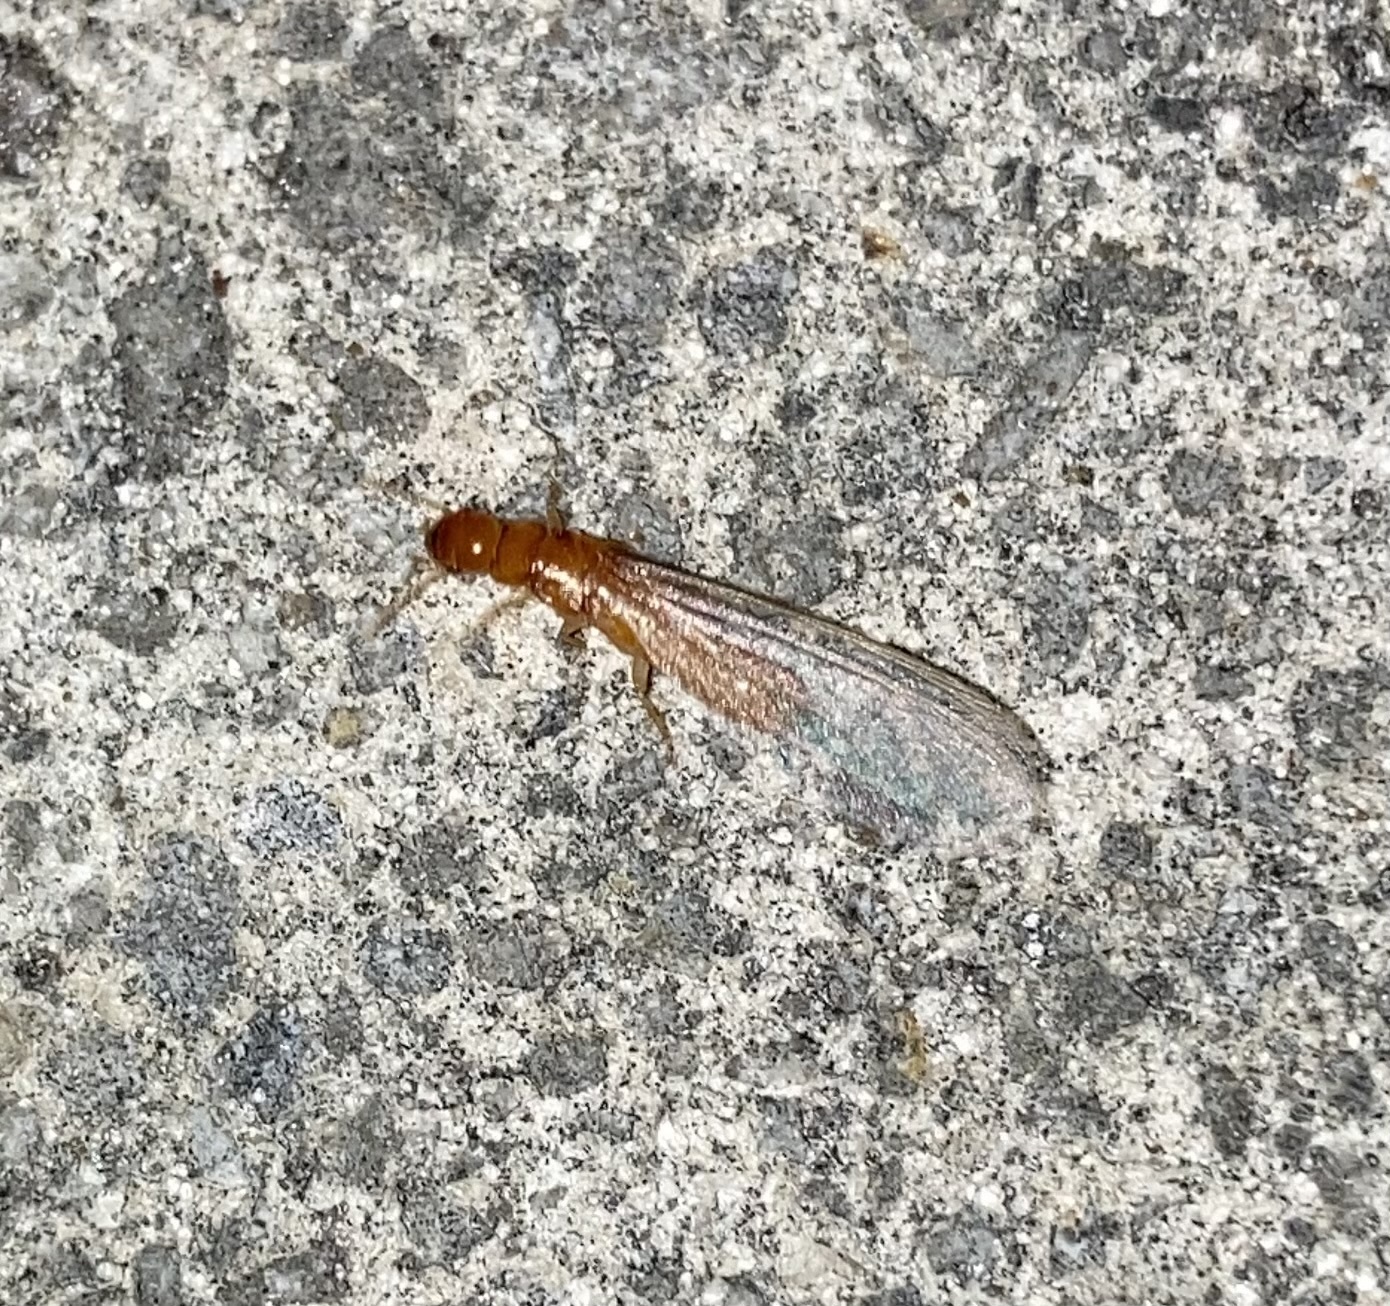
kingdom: Animalia
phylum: Arthropoda
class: Insecta
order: Blattodea
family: Kalotermitidae
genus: Incisitermes
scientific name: Incisitermes snyderi
